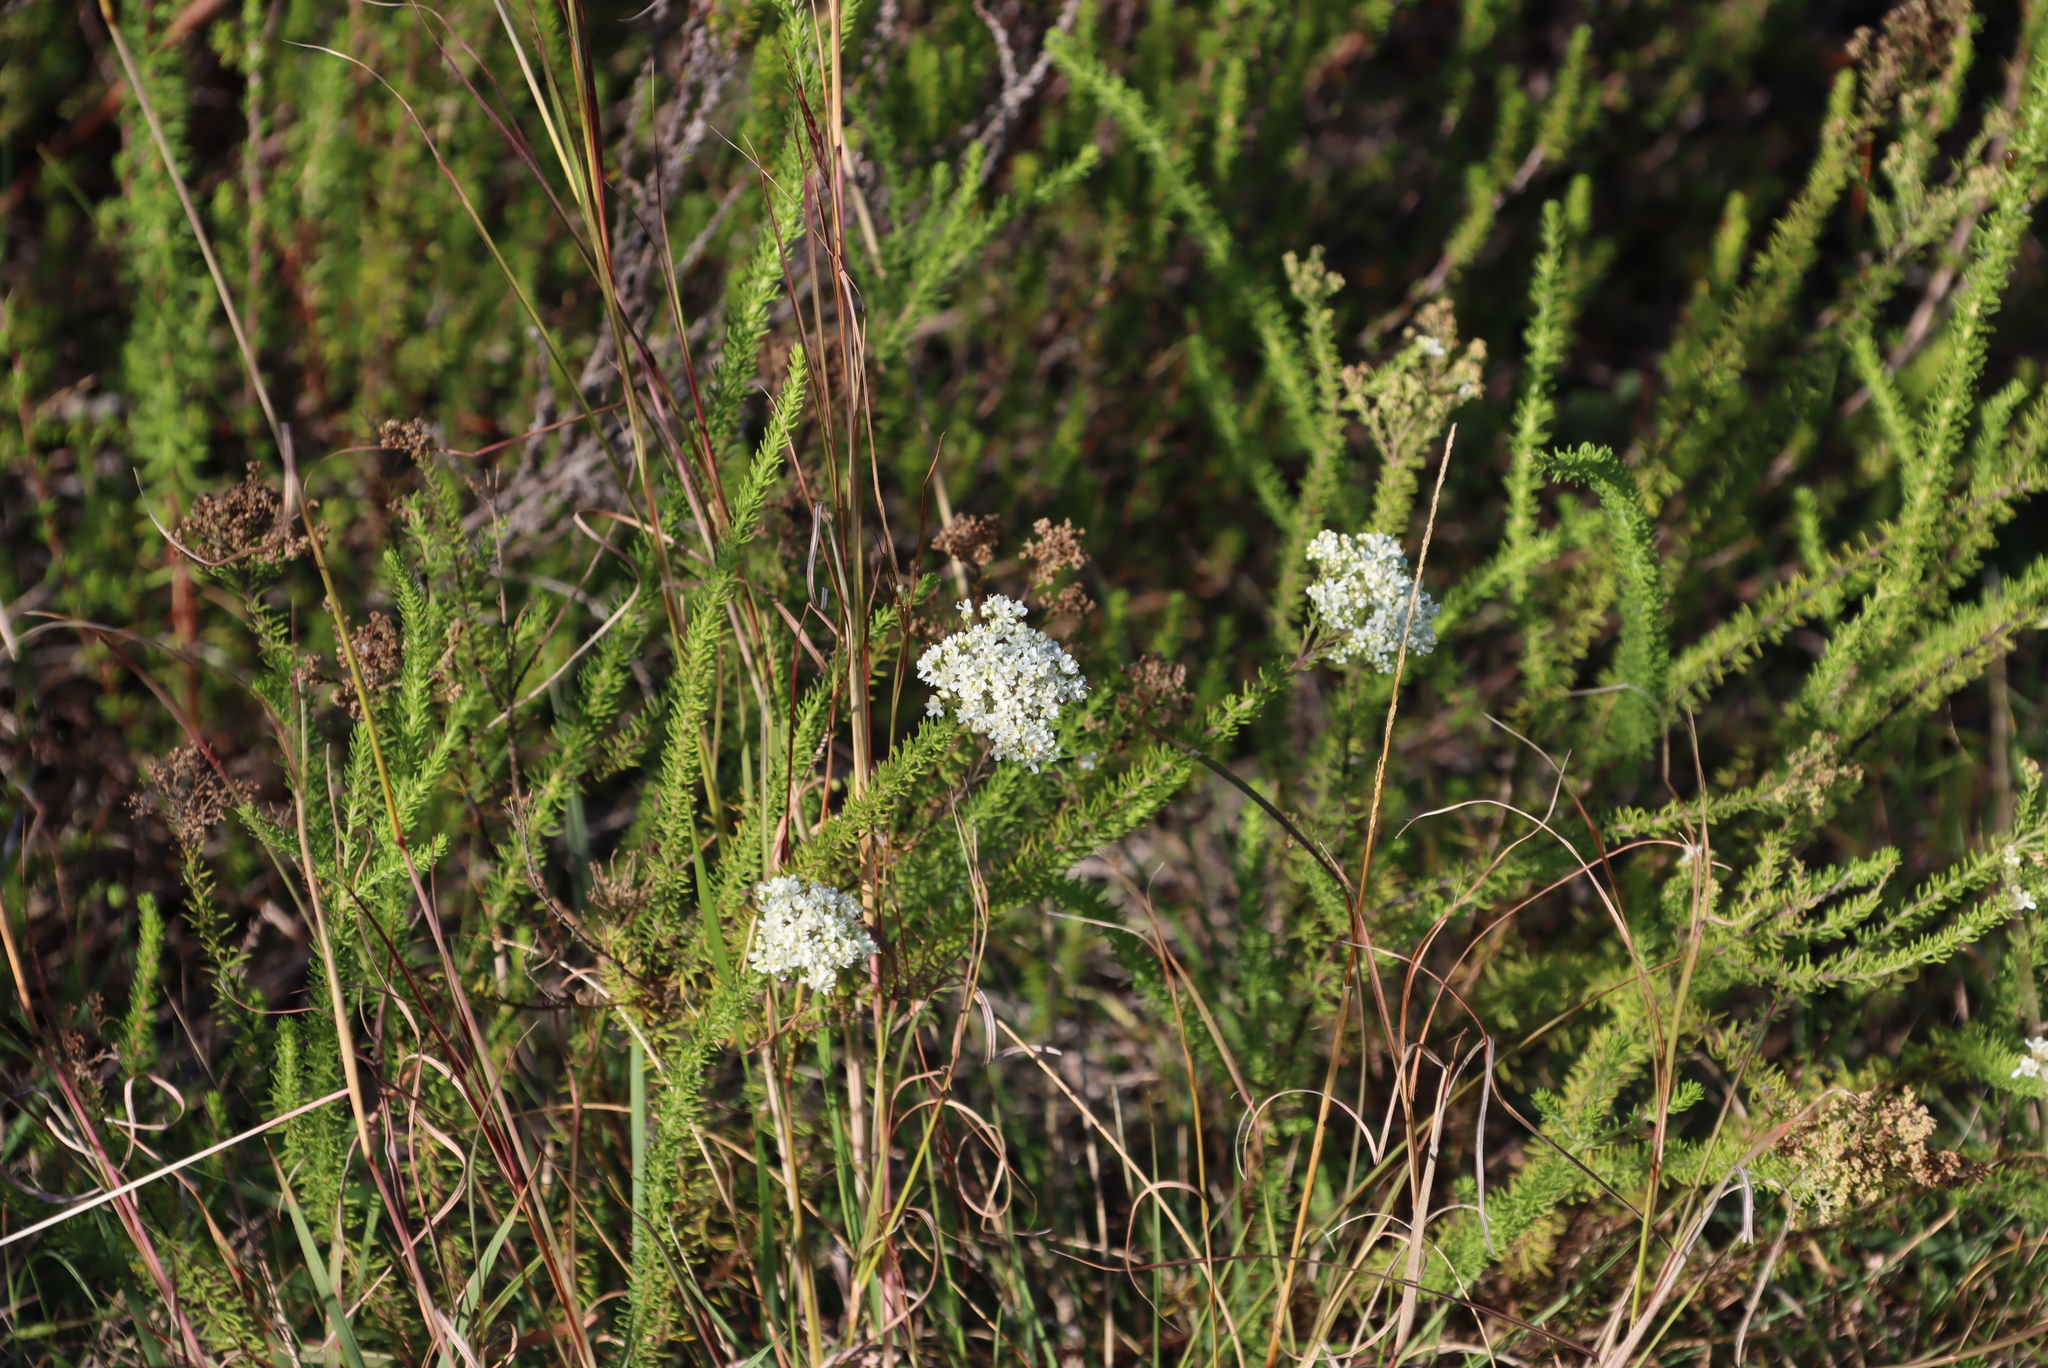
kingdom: Plantae
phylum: Tracheophyta
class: Magnoliopsida
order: Lamiales
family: Scrophulariaceae
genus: Selago
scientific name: Selago corymbosa
